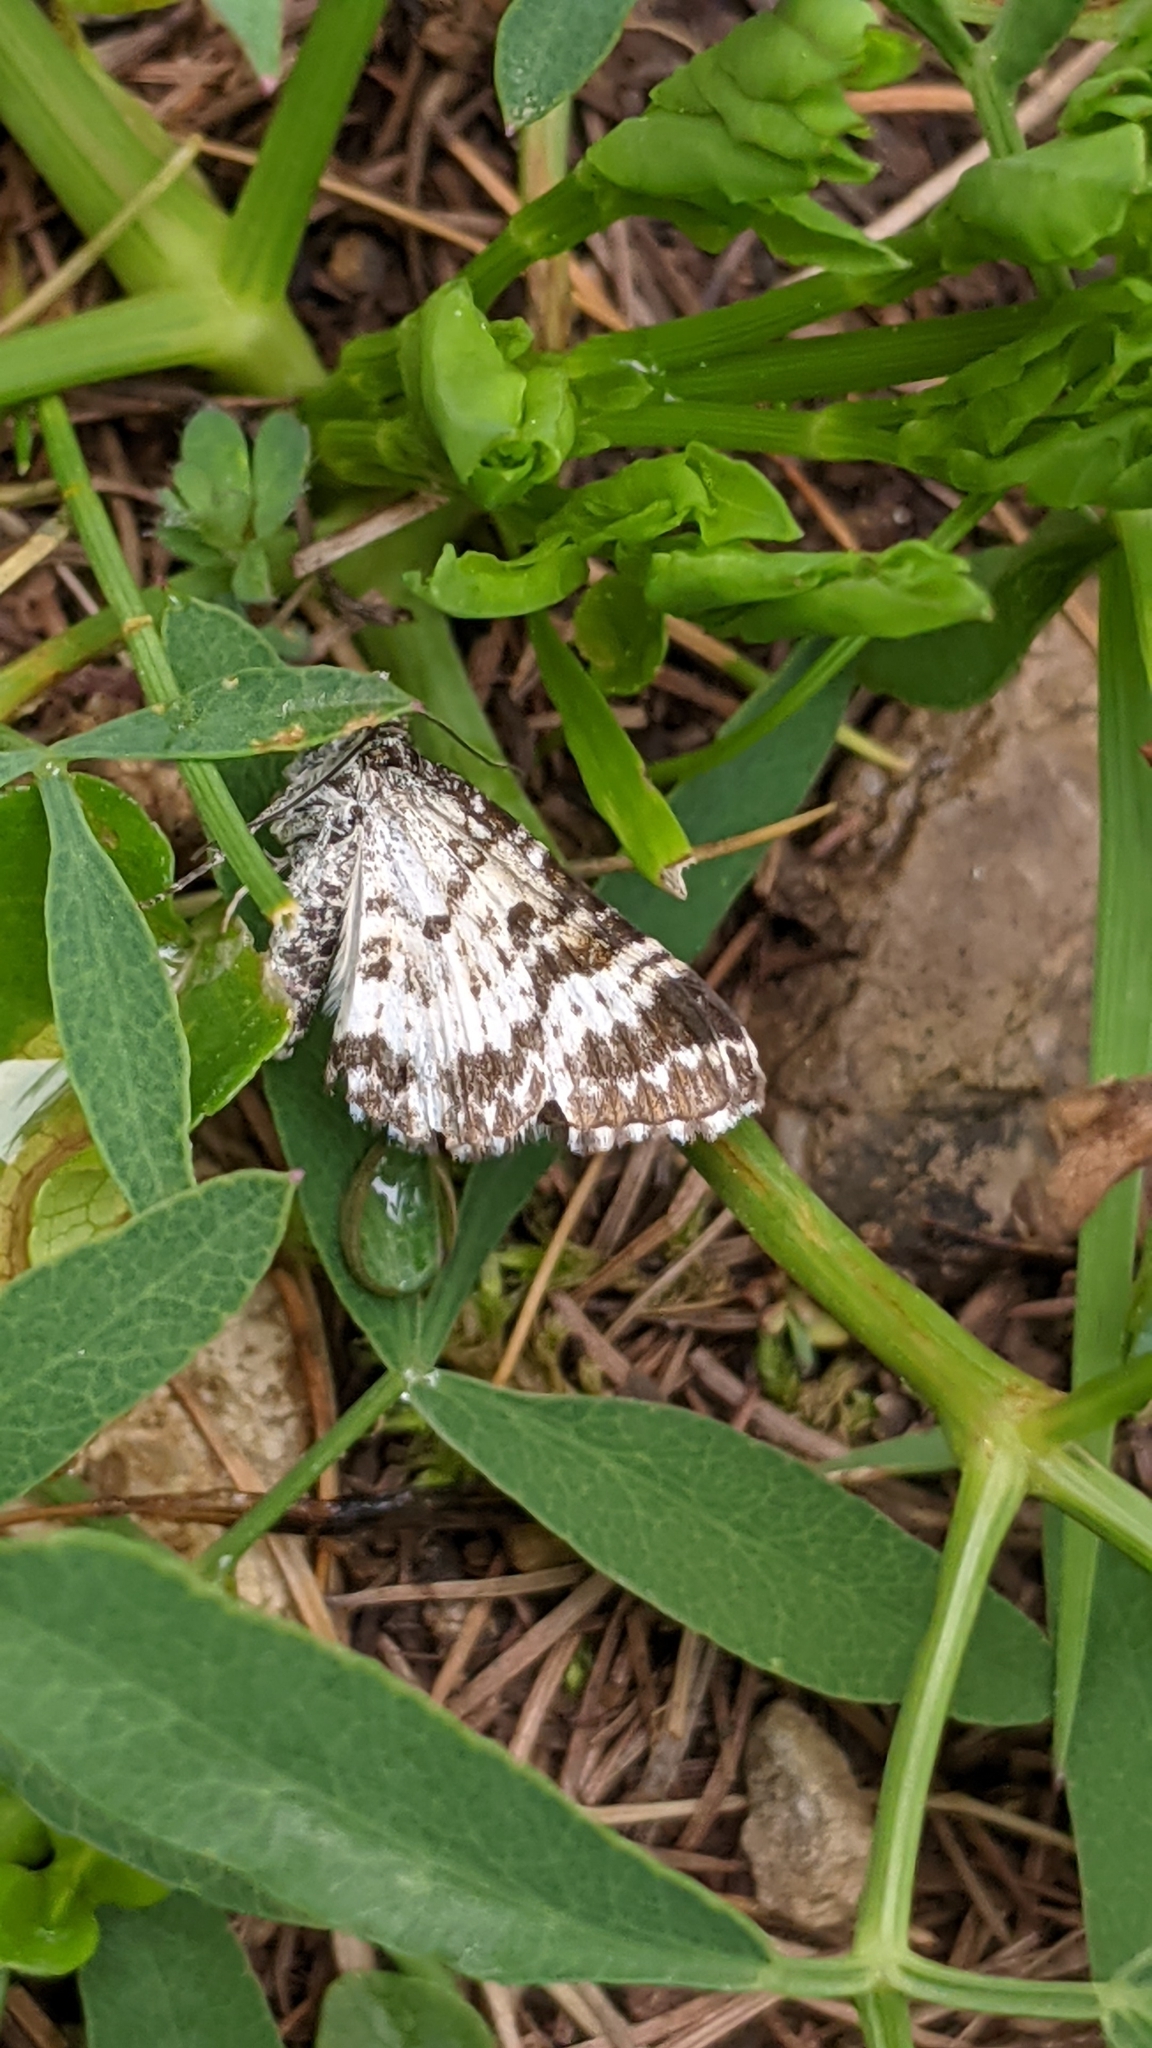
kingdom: Animalia
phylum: Arthropoda
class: Insecta
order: Lepidoptera
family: Geometridae
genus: Epirrhoe
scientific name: Epirrhoe tristata
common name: Small argent & sable
